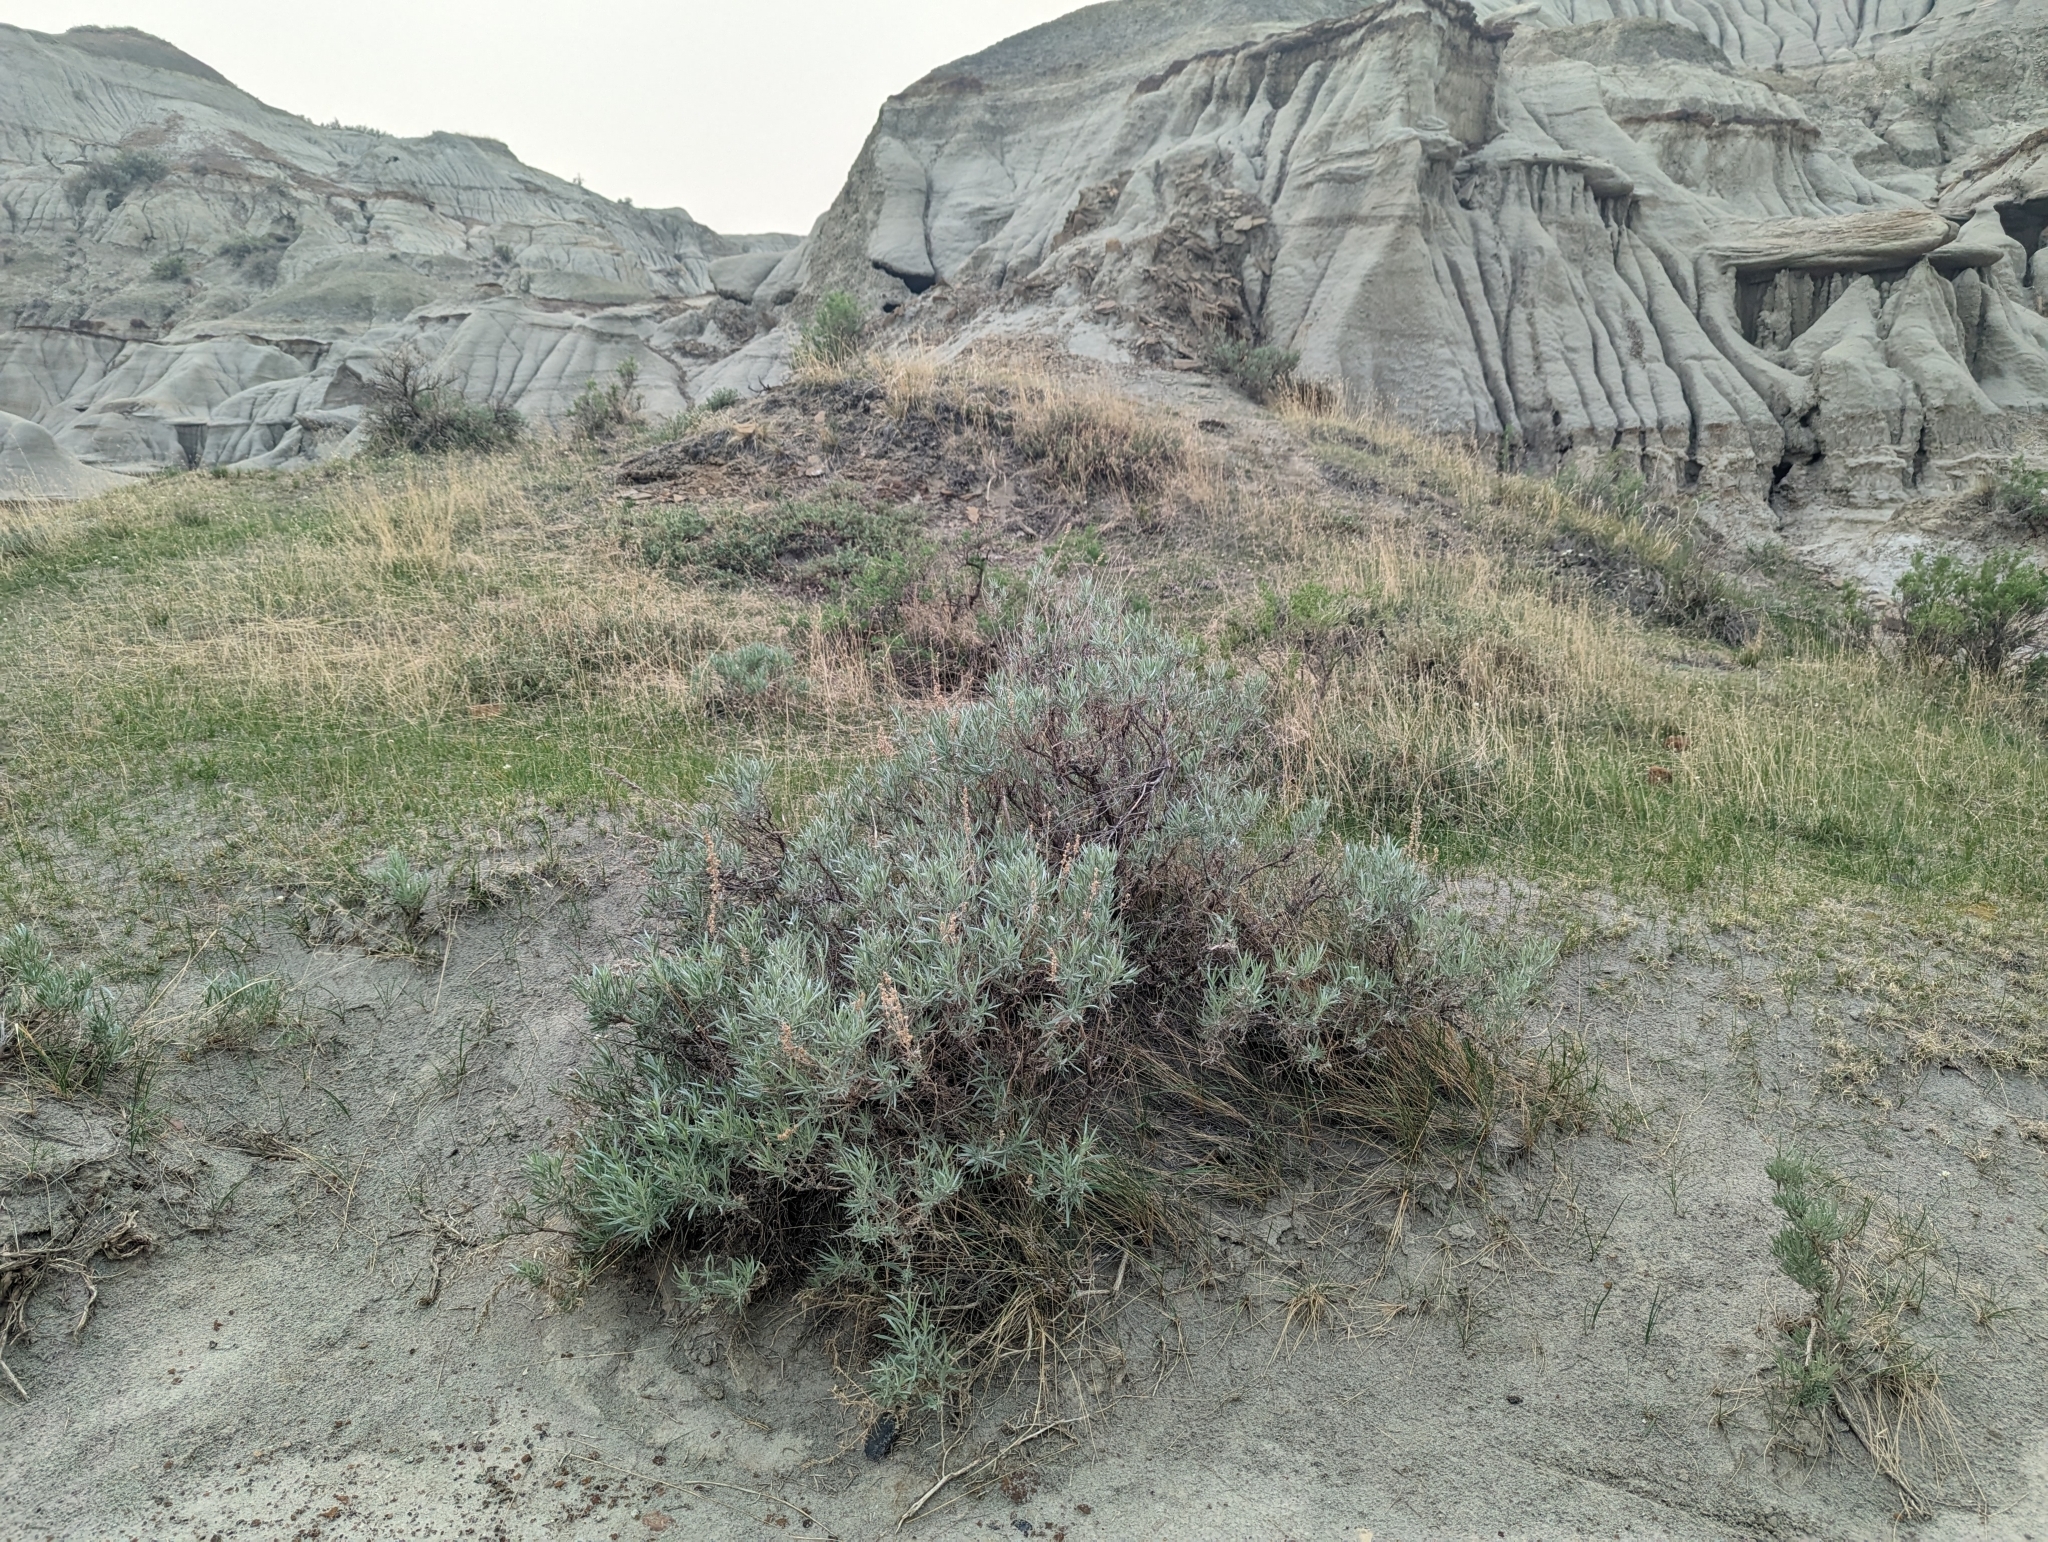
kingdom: Plantae
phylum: Tracheophyta
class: Magnoliopsida
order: Asterales
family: Asteraceae
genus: Artemisia
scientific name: Artemisia cana
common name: Silver sagebrush
